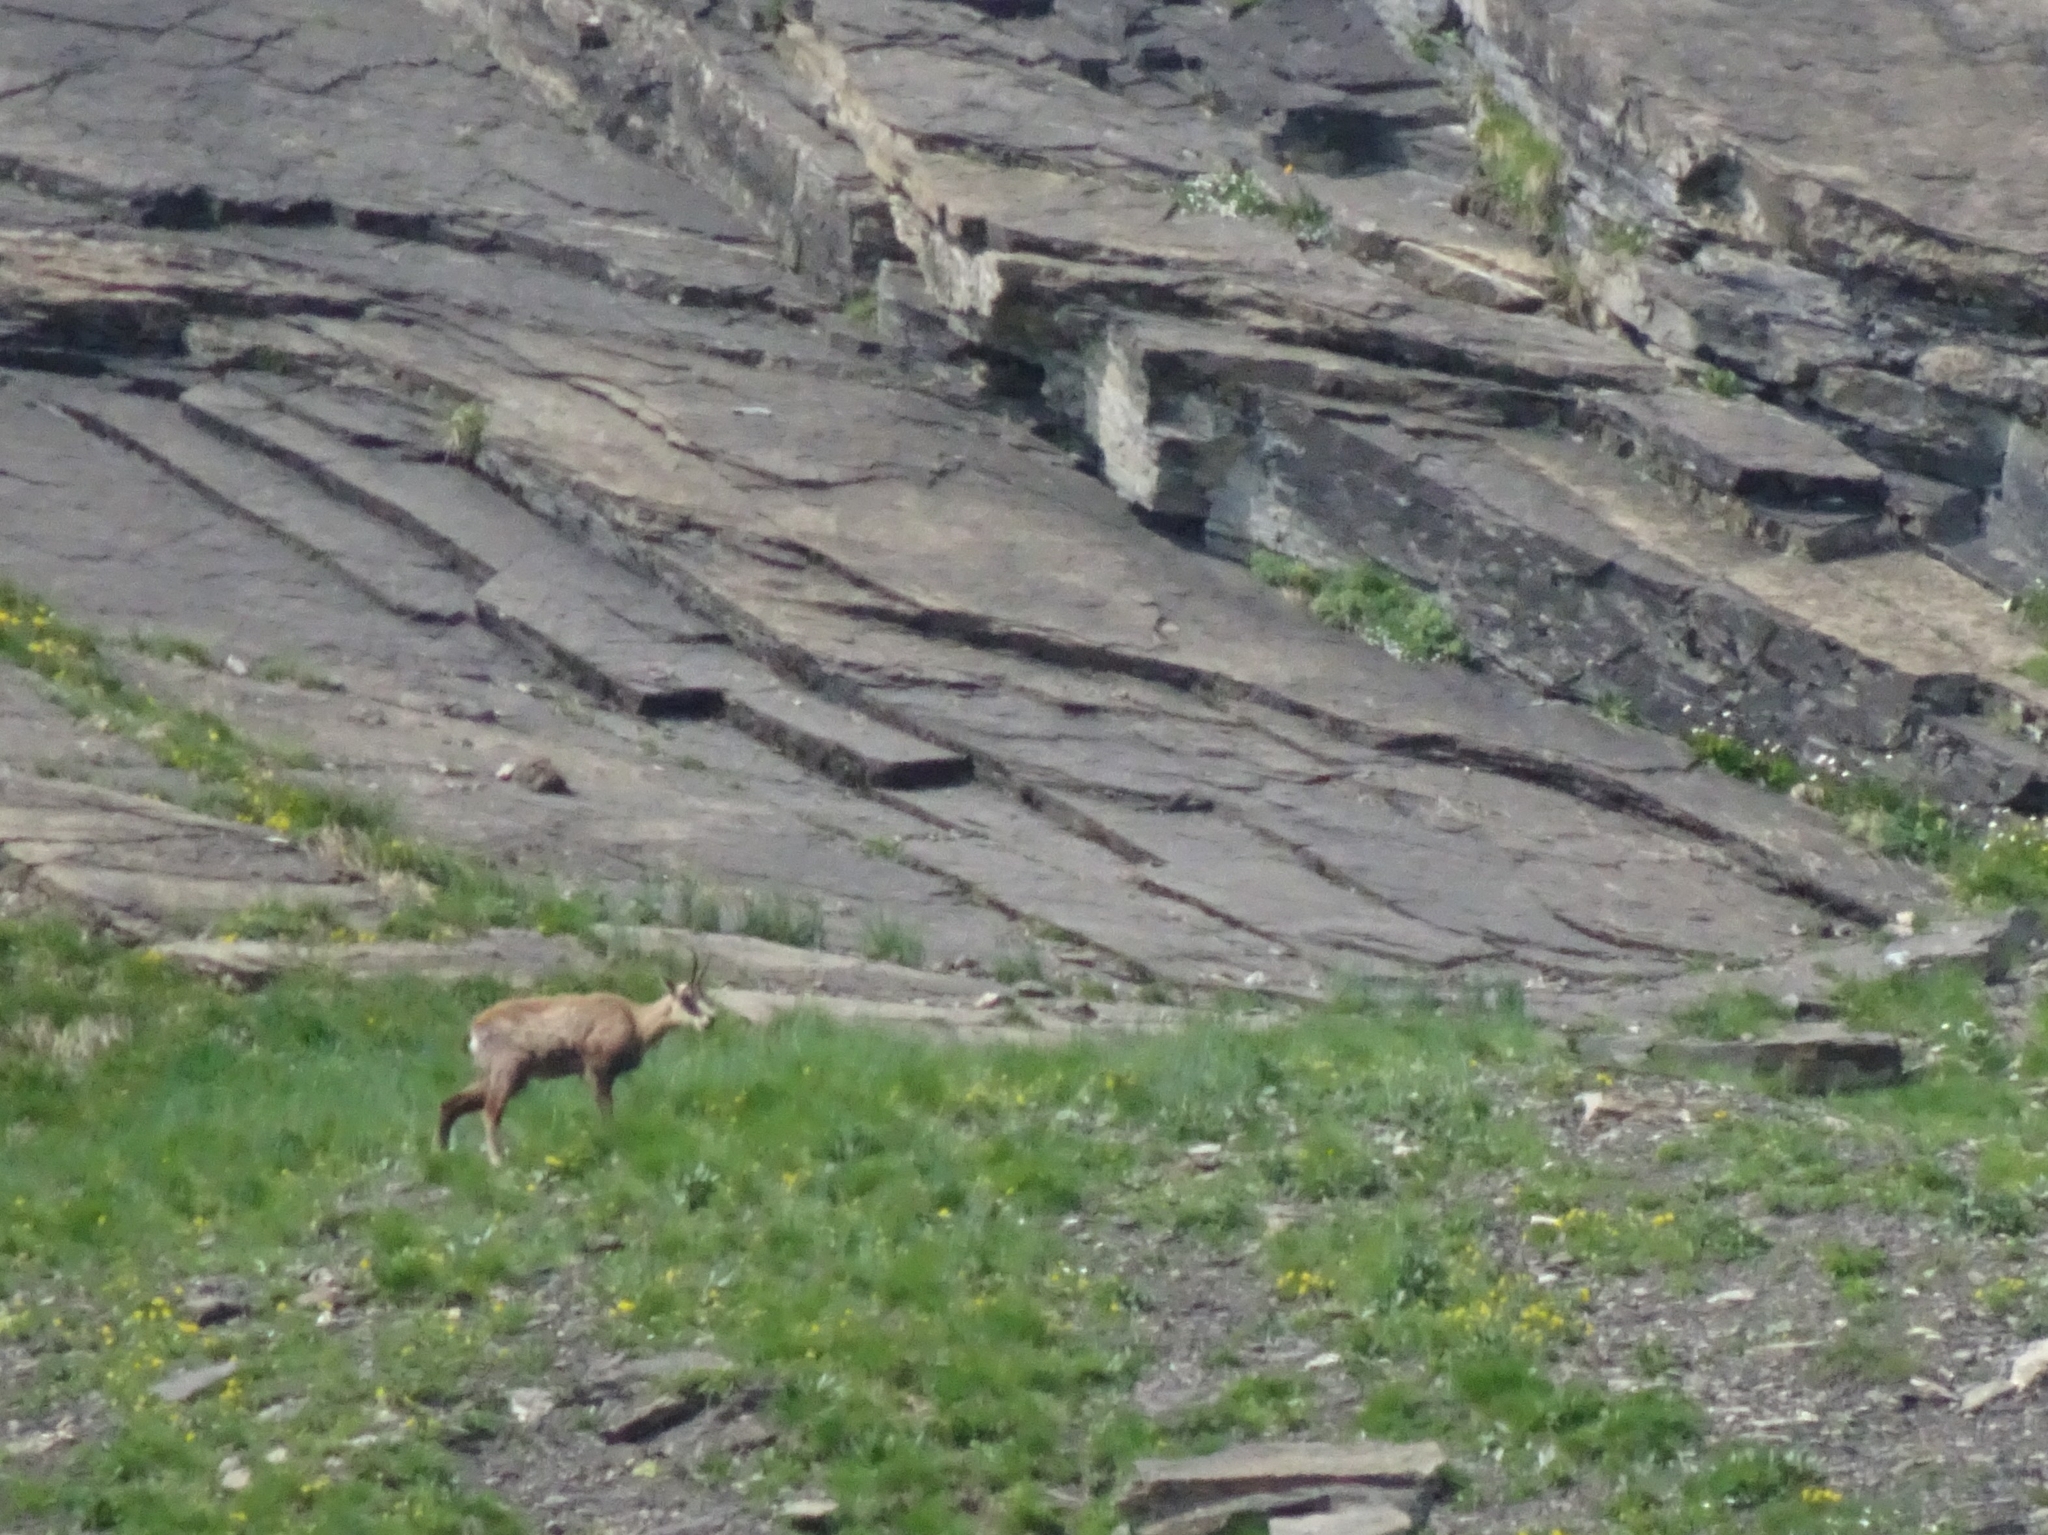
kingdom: Animalia
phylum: Chordata
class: Mammalia
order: Artiodactyla
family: Bovidae
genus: Rupicapra
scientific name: Rupicapra rupicapra
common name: Chamois
